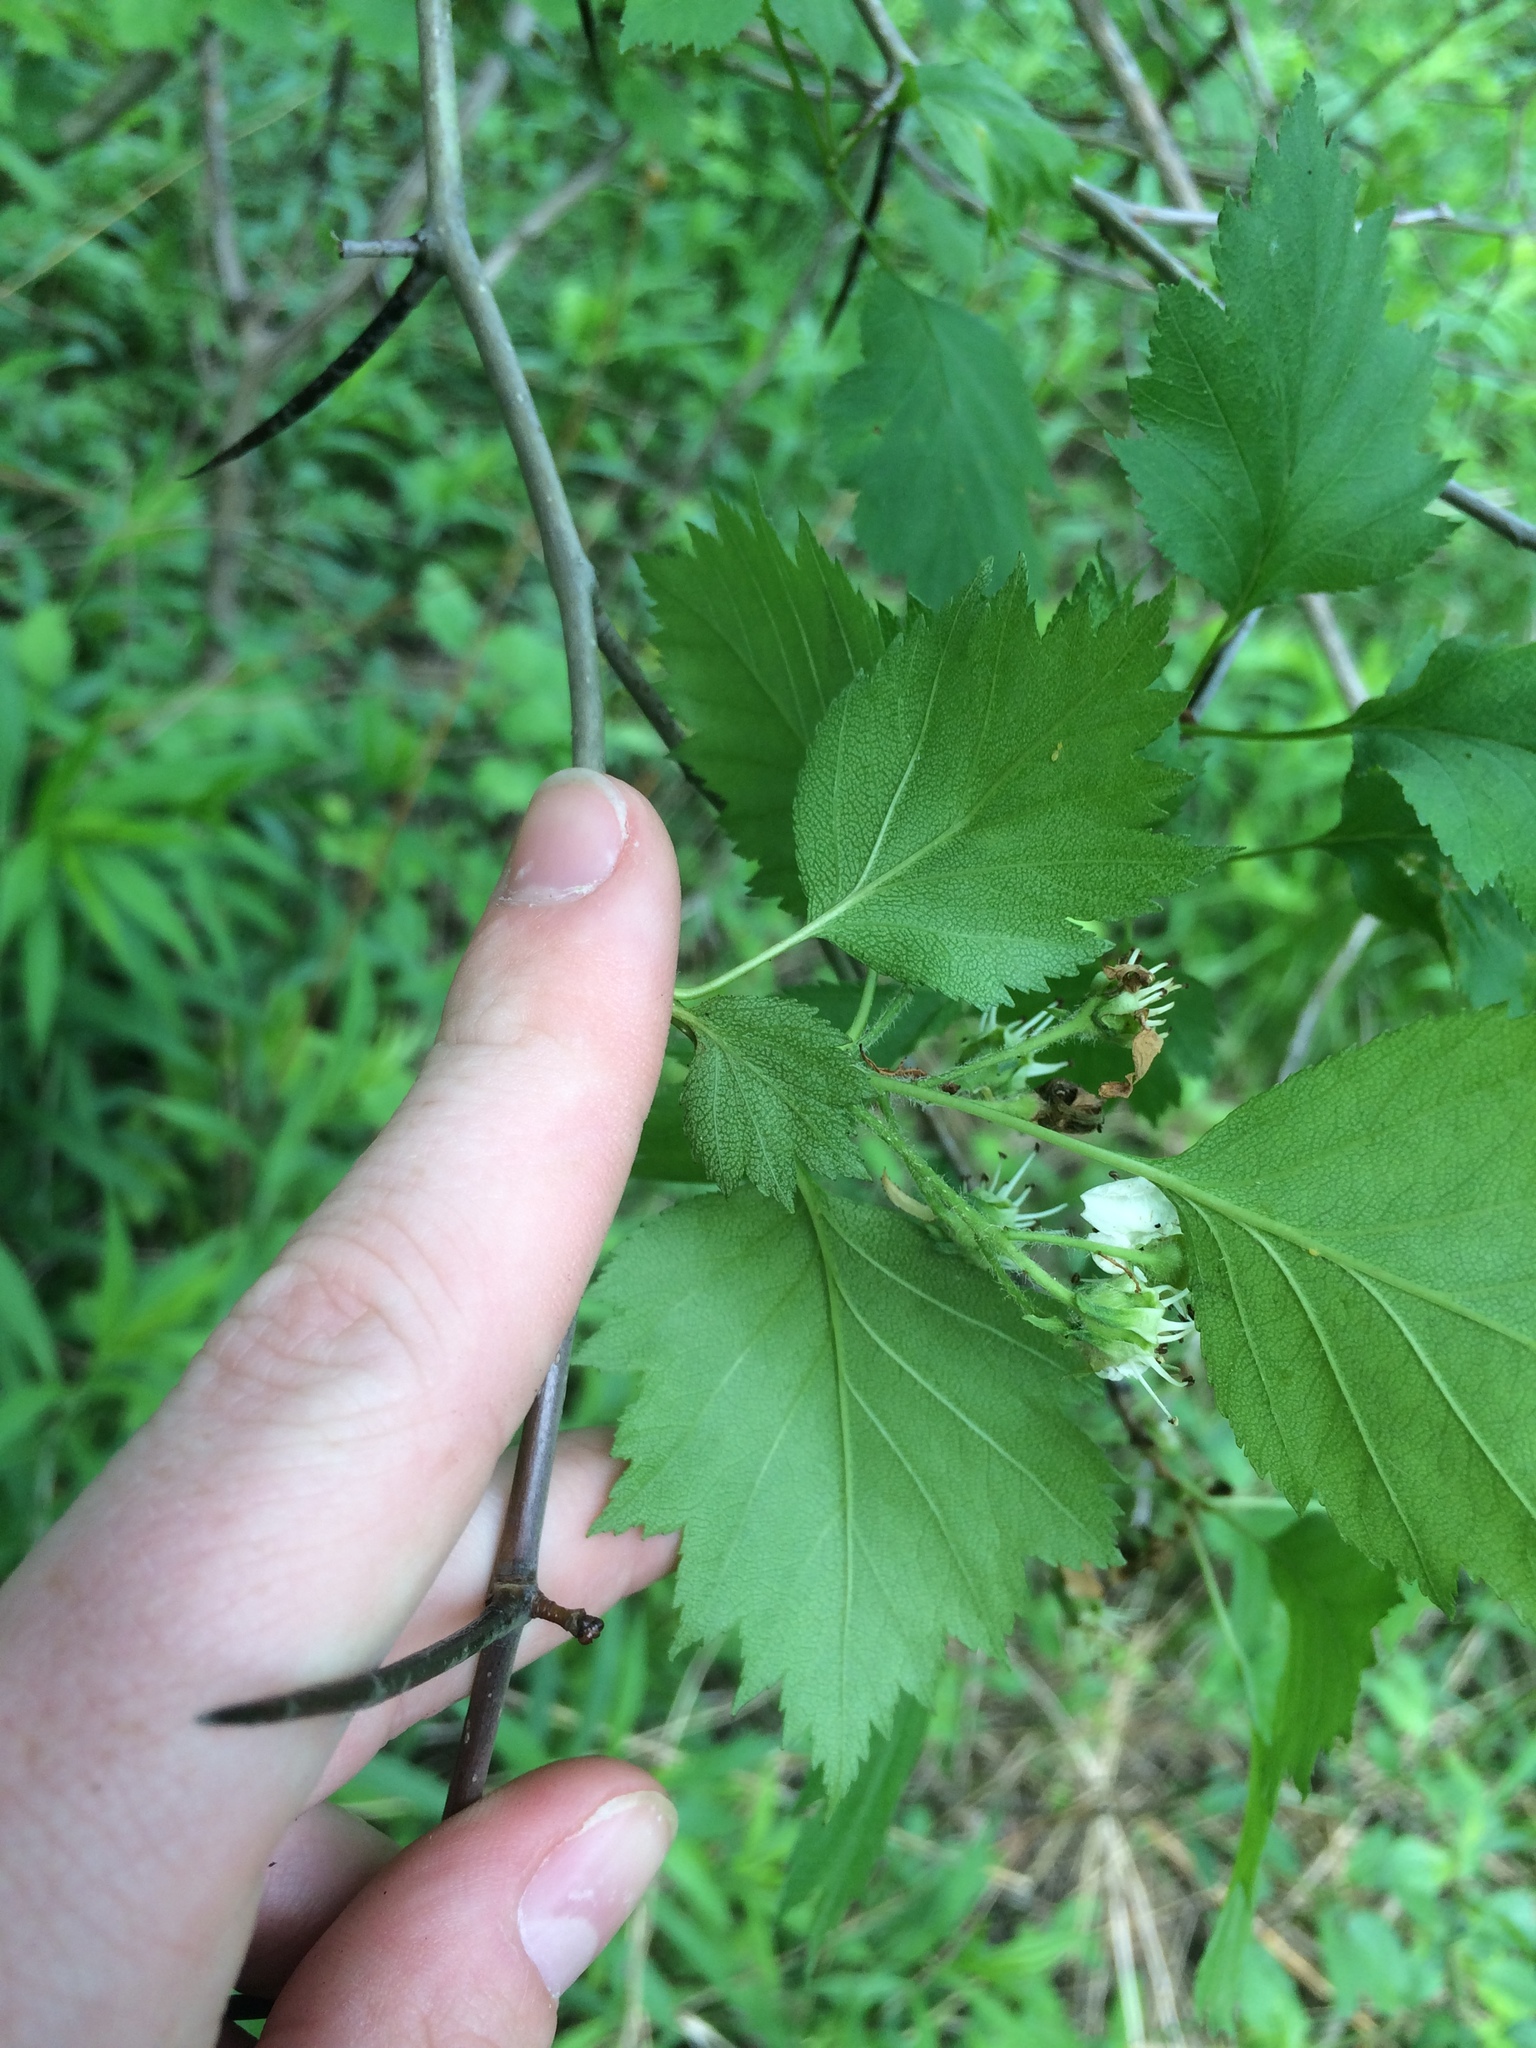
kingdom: Plantae
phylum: Tracheophyta
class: Magnoliopsida
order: Rosales
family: Rosaceae
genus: Crataegus
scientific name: Crataegus flabellata
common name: Bosc's hawthorn
